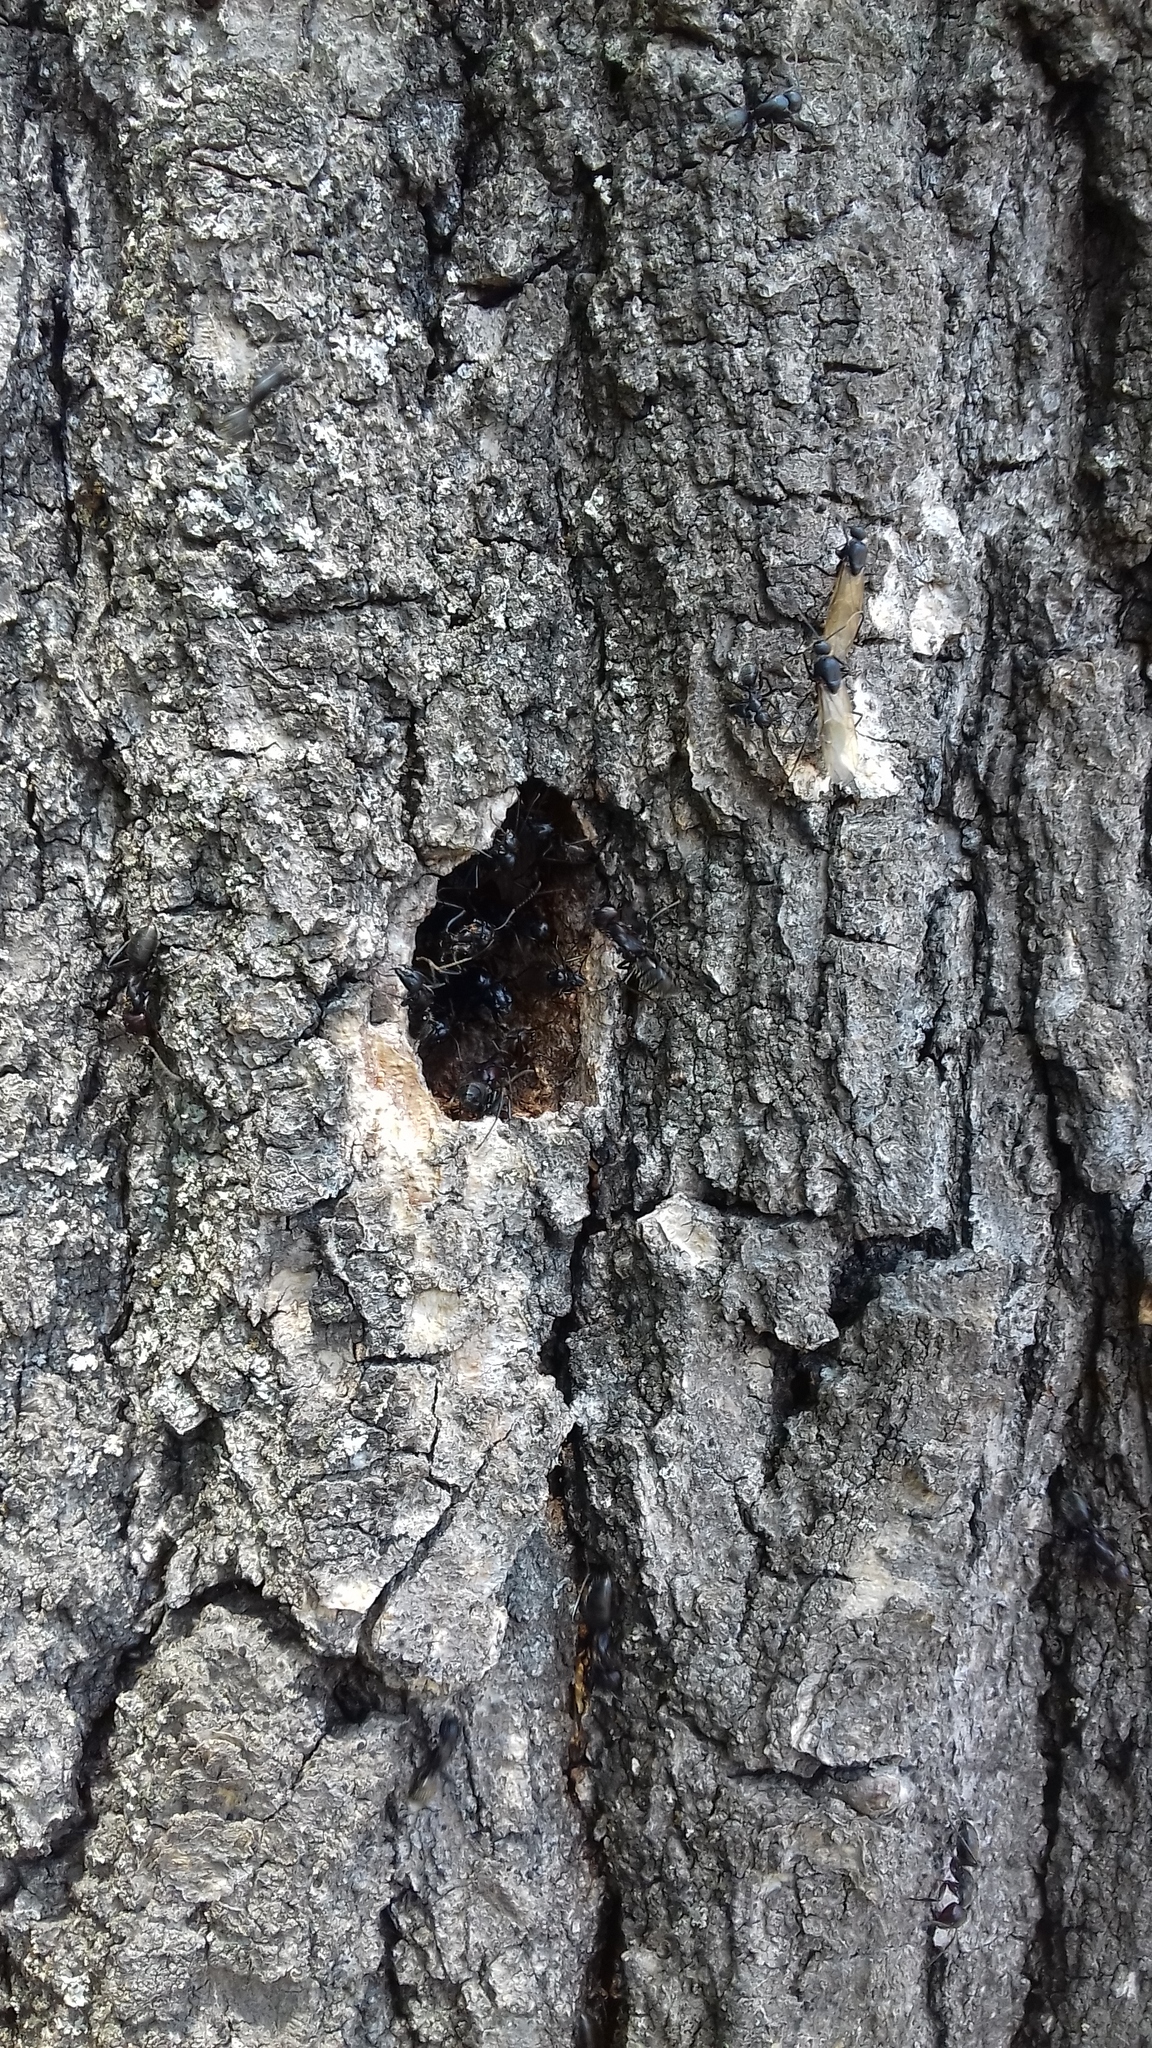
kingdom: Animalia
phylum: Arthropoda
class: Insecta
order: Hymenoptera
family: Formicidae
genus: Camponotus
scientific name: Camponotus vagus
